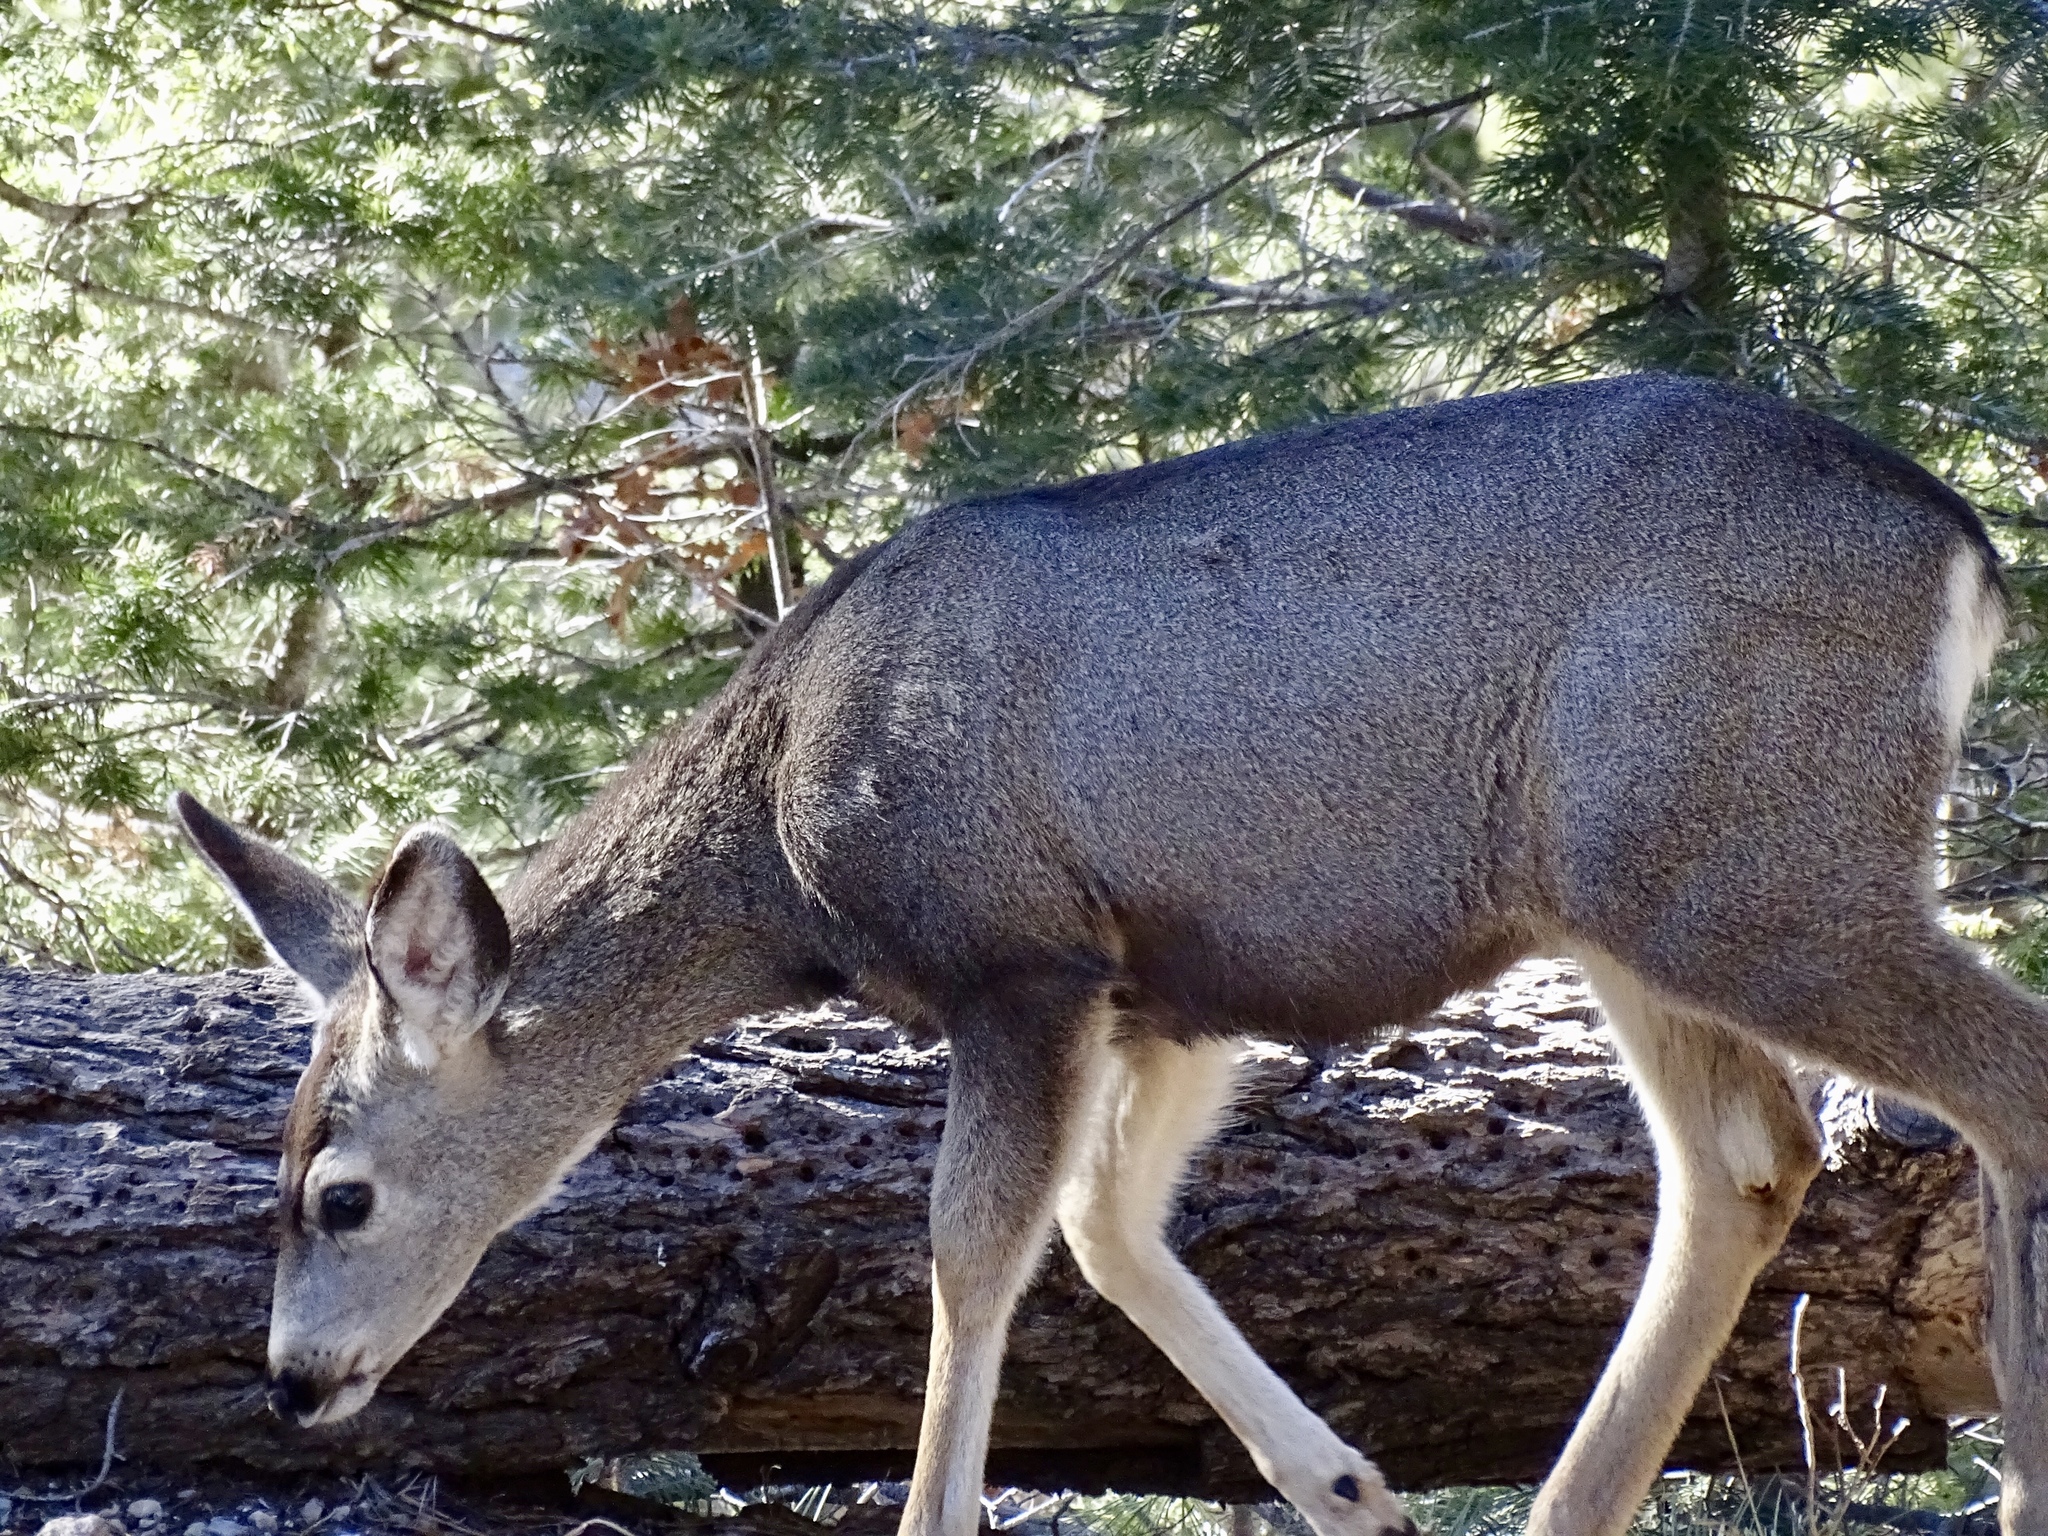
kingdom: Animalia
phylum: Chordata
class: Mammalia
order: Artiodactyla
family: Cervidae
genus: Odocoileus
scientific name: Odocoileus hemionus
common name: Mule deer
